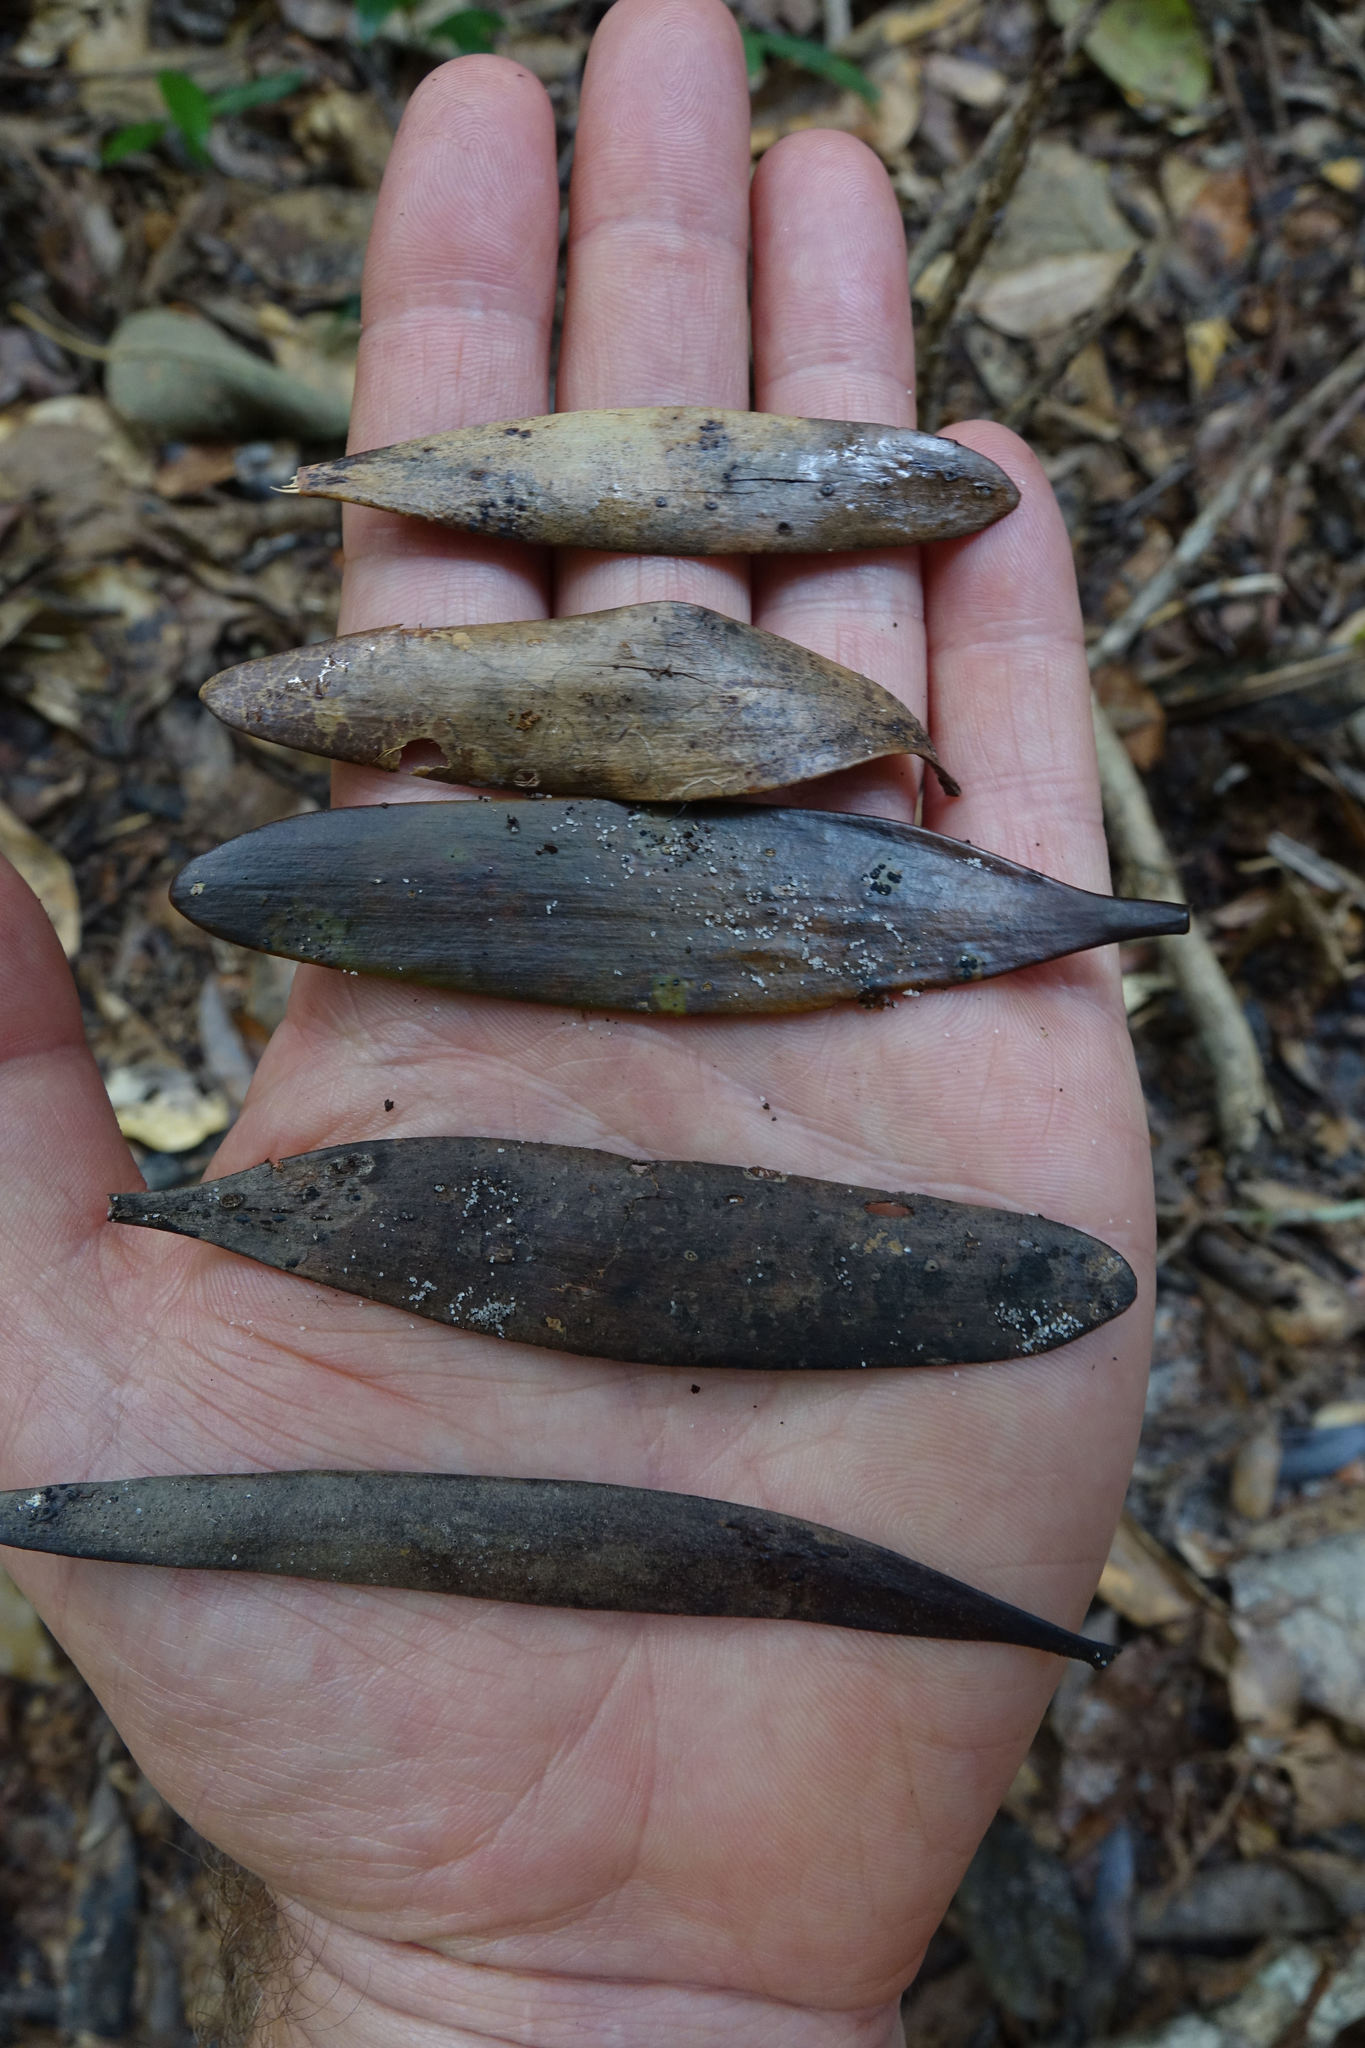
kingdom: Plantae
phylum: Tracheophyta
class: Pinopsida
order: Pinales
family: Araucariaceae
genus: Agathis
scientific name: Agathis robusta
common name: Australian-kauri
